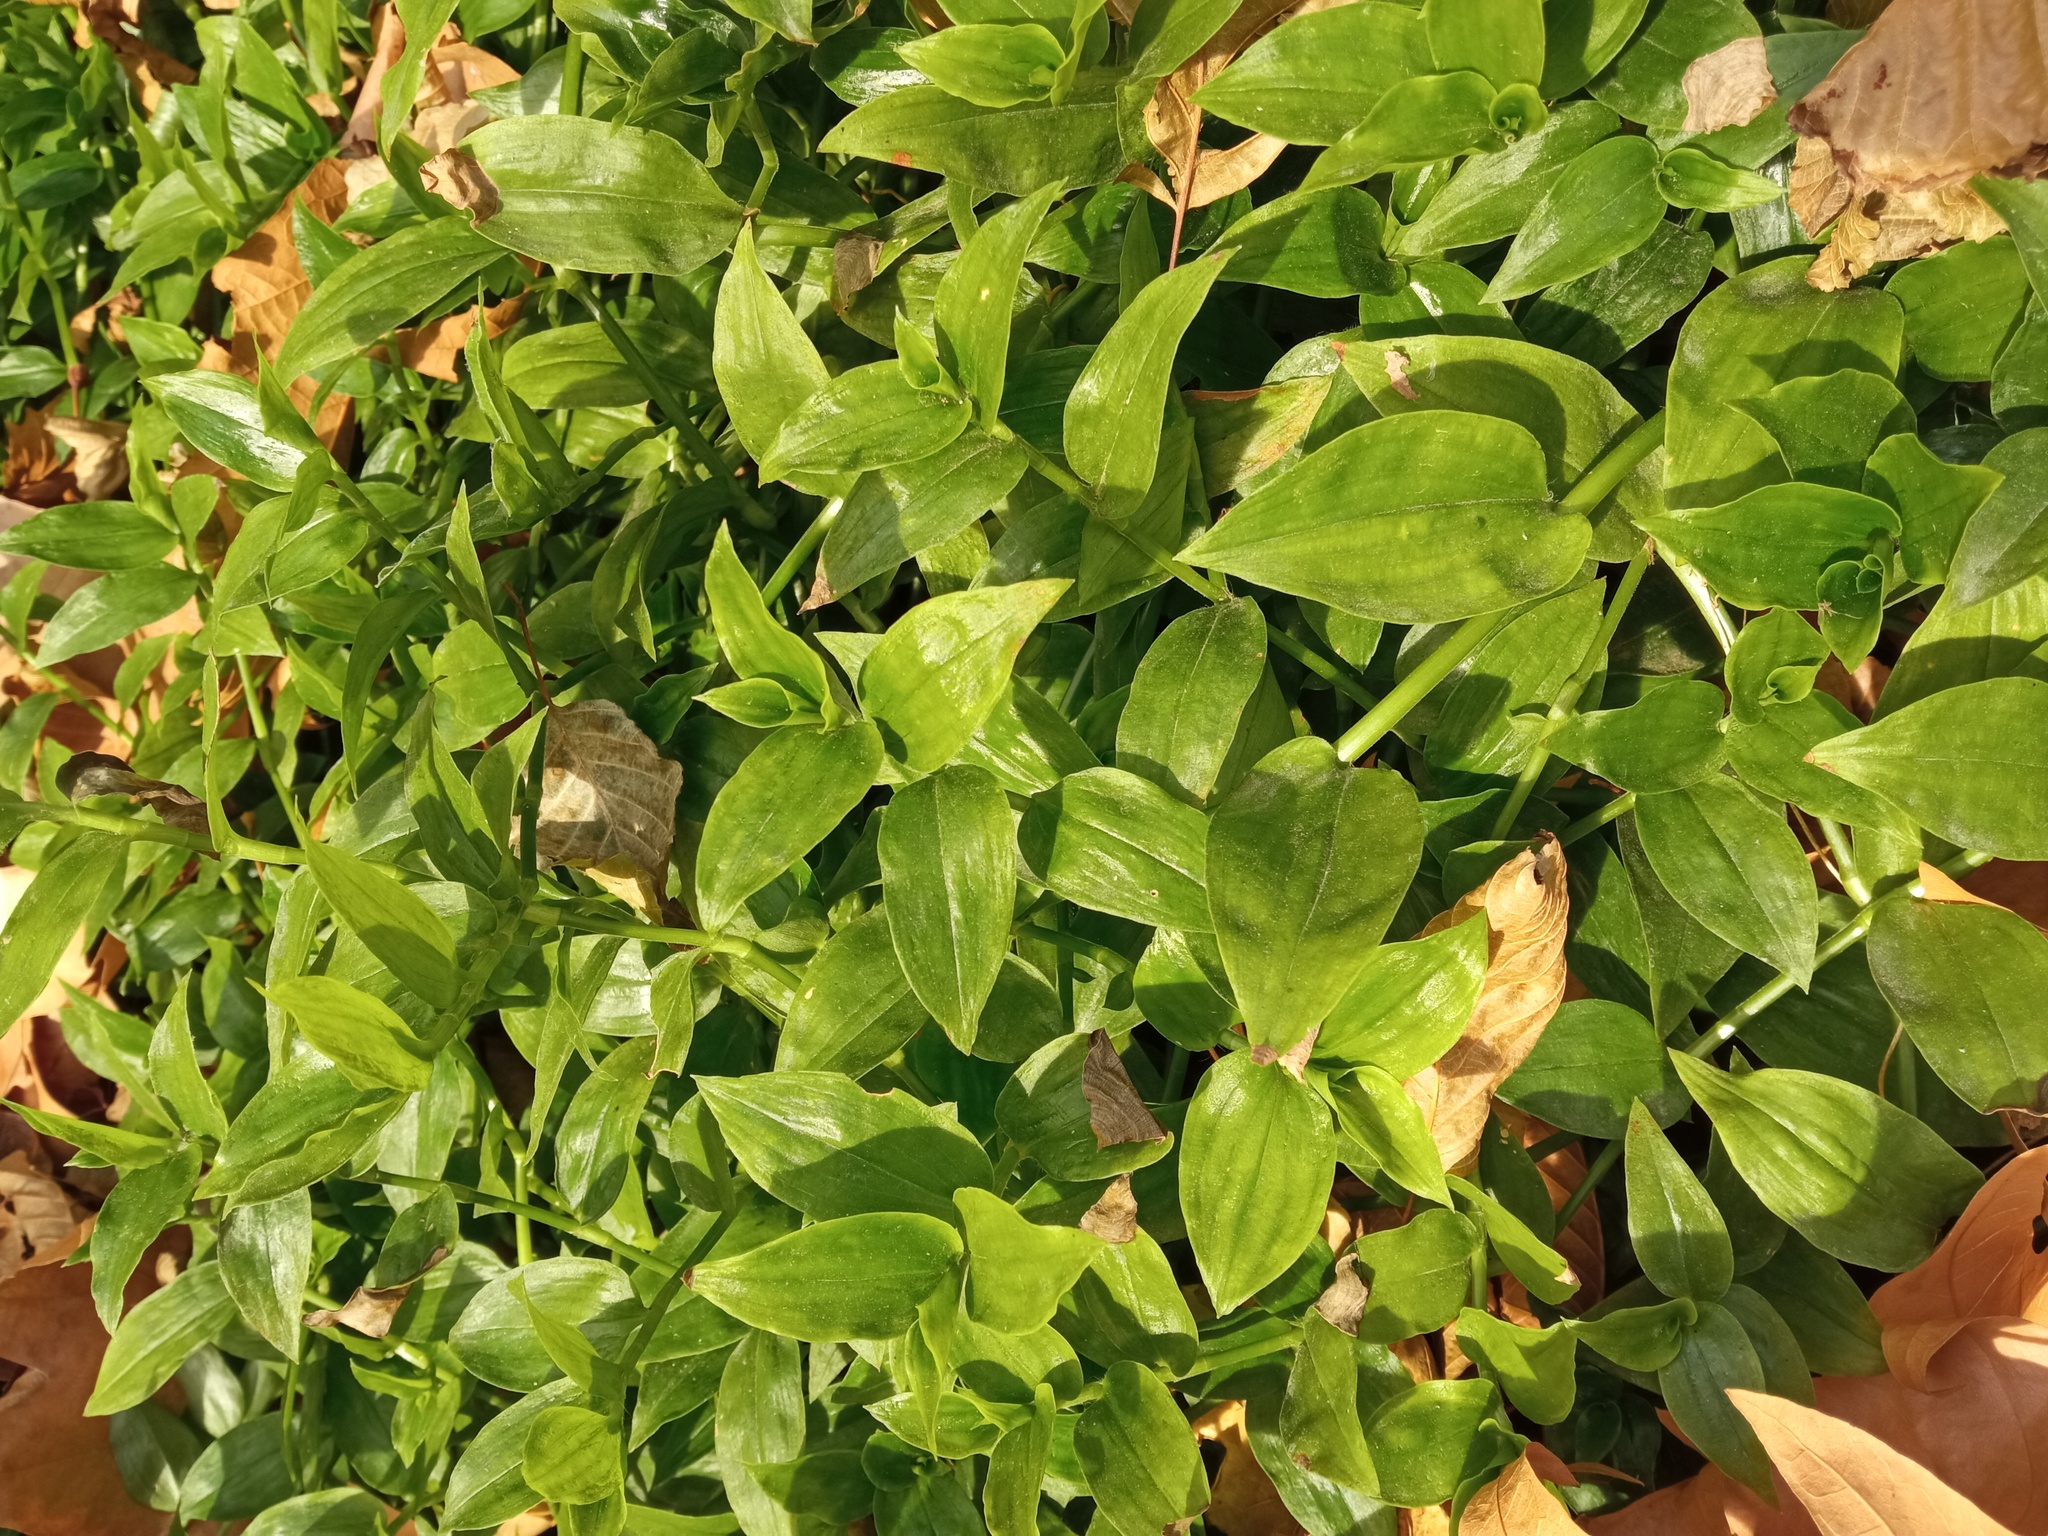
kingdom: Plantae
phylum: Tracheophyta
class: Liliopsida
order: Commelinales
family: Commelinaceae
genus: Tradescantia
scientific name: Tradescantia fluminensis
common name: Wandering-jew
